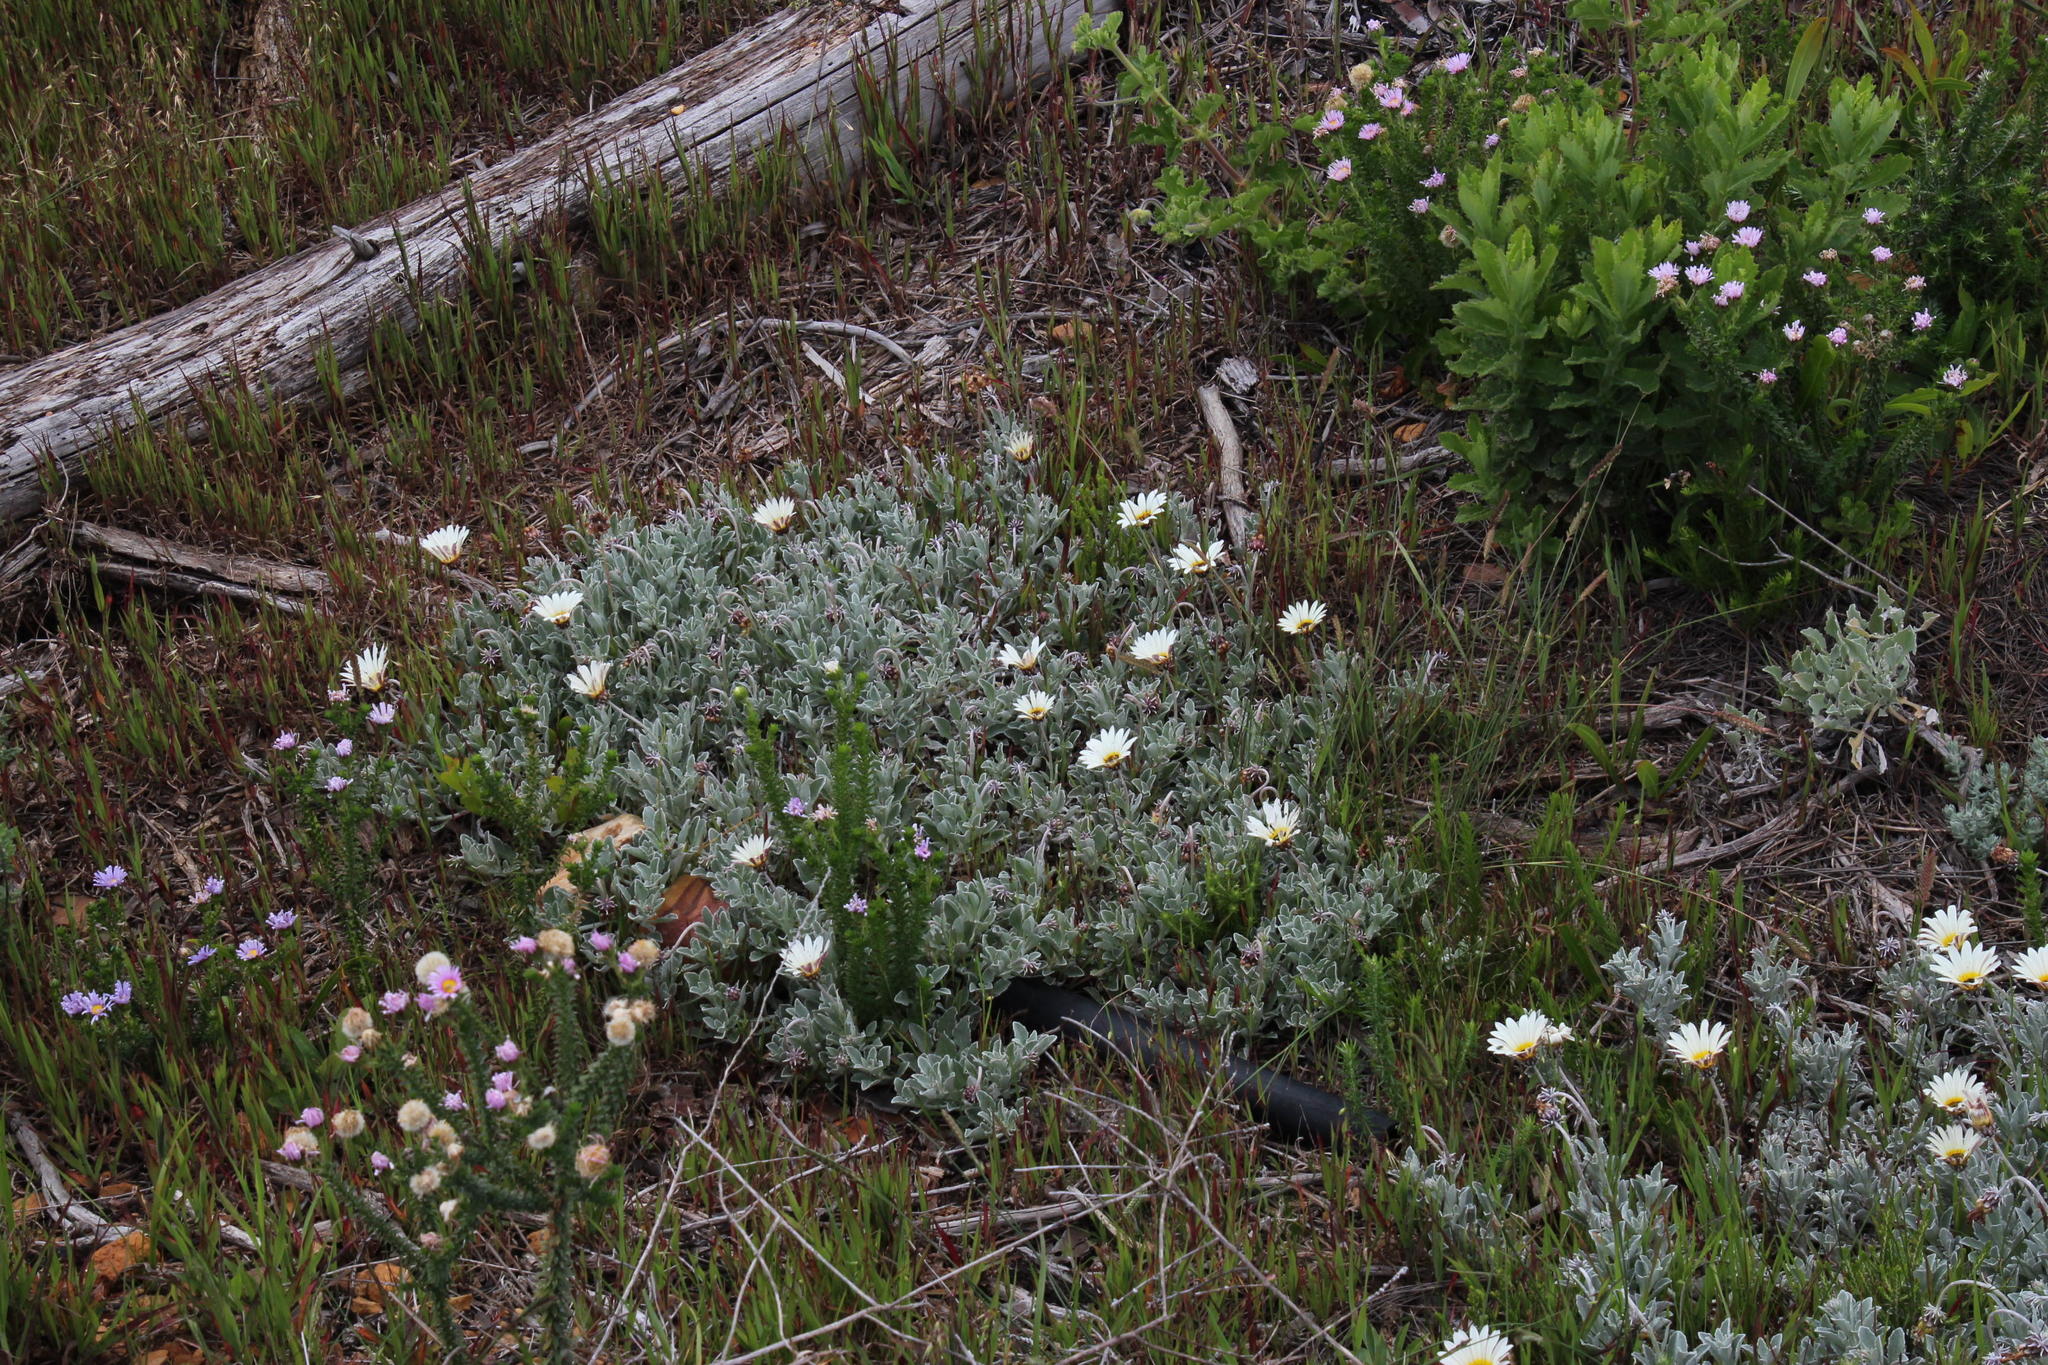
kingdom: Plantae
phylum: Tracheophyta
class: Magnoliopsida
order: Asterales
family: Asteraceae
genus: Arctotis
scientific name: Arctotis stoechadifolia
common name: African daisy
